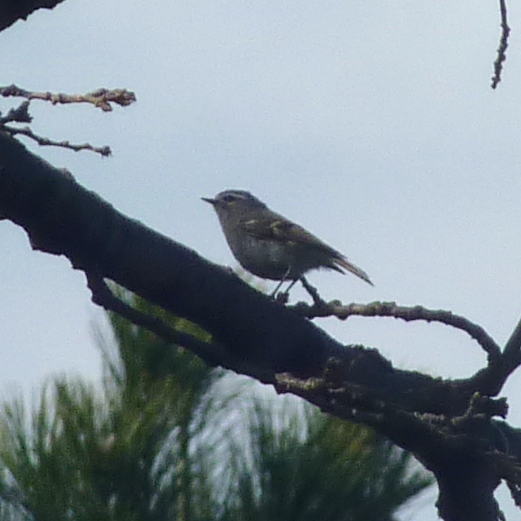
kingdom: Animalia
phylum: Chordata
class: Aves
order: Passeriformes
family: Regulidae
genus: Regulus
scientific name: Regulus satrapa
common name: Golden-crowned kinglet
